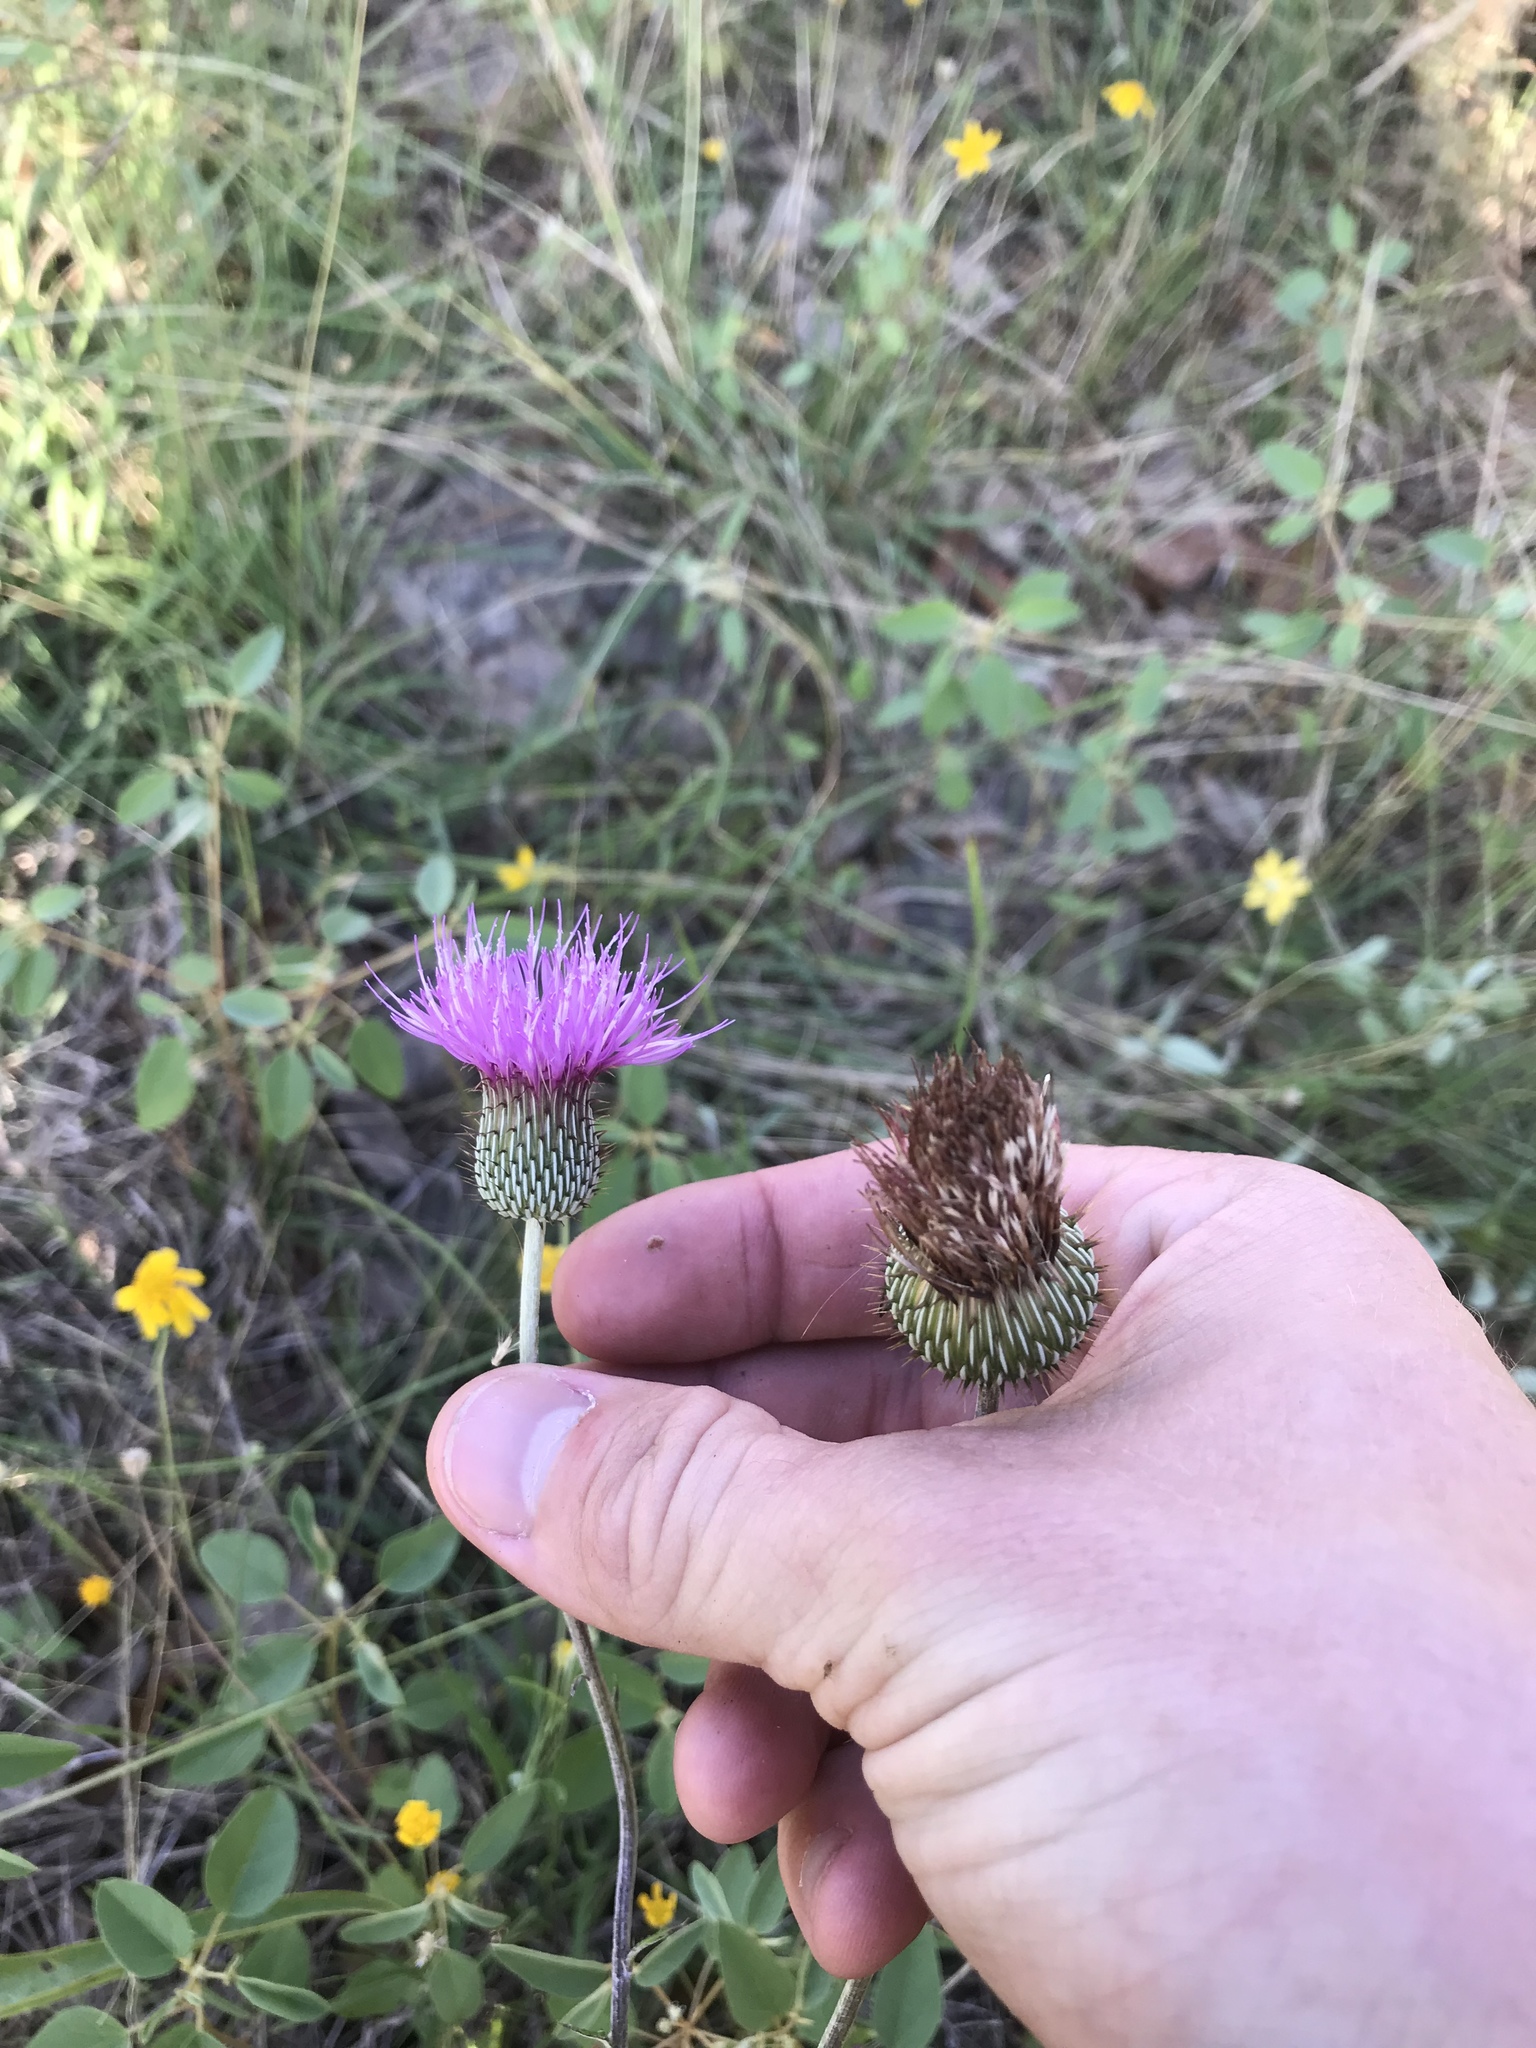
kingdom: Plantae
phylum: Tracheophyta
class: Magnoliopsida
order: Asterales
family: Asteraceae
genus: Cirsium
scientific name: Cirsium texanum
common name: Texas purple thistle
